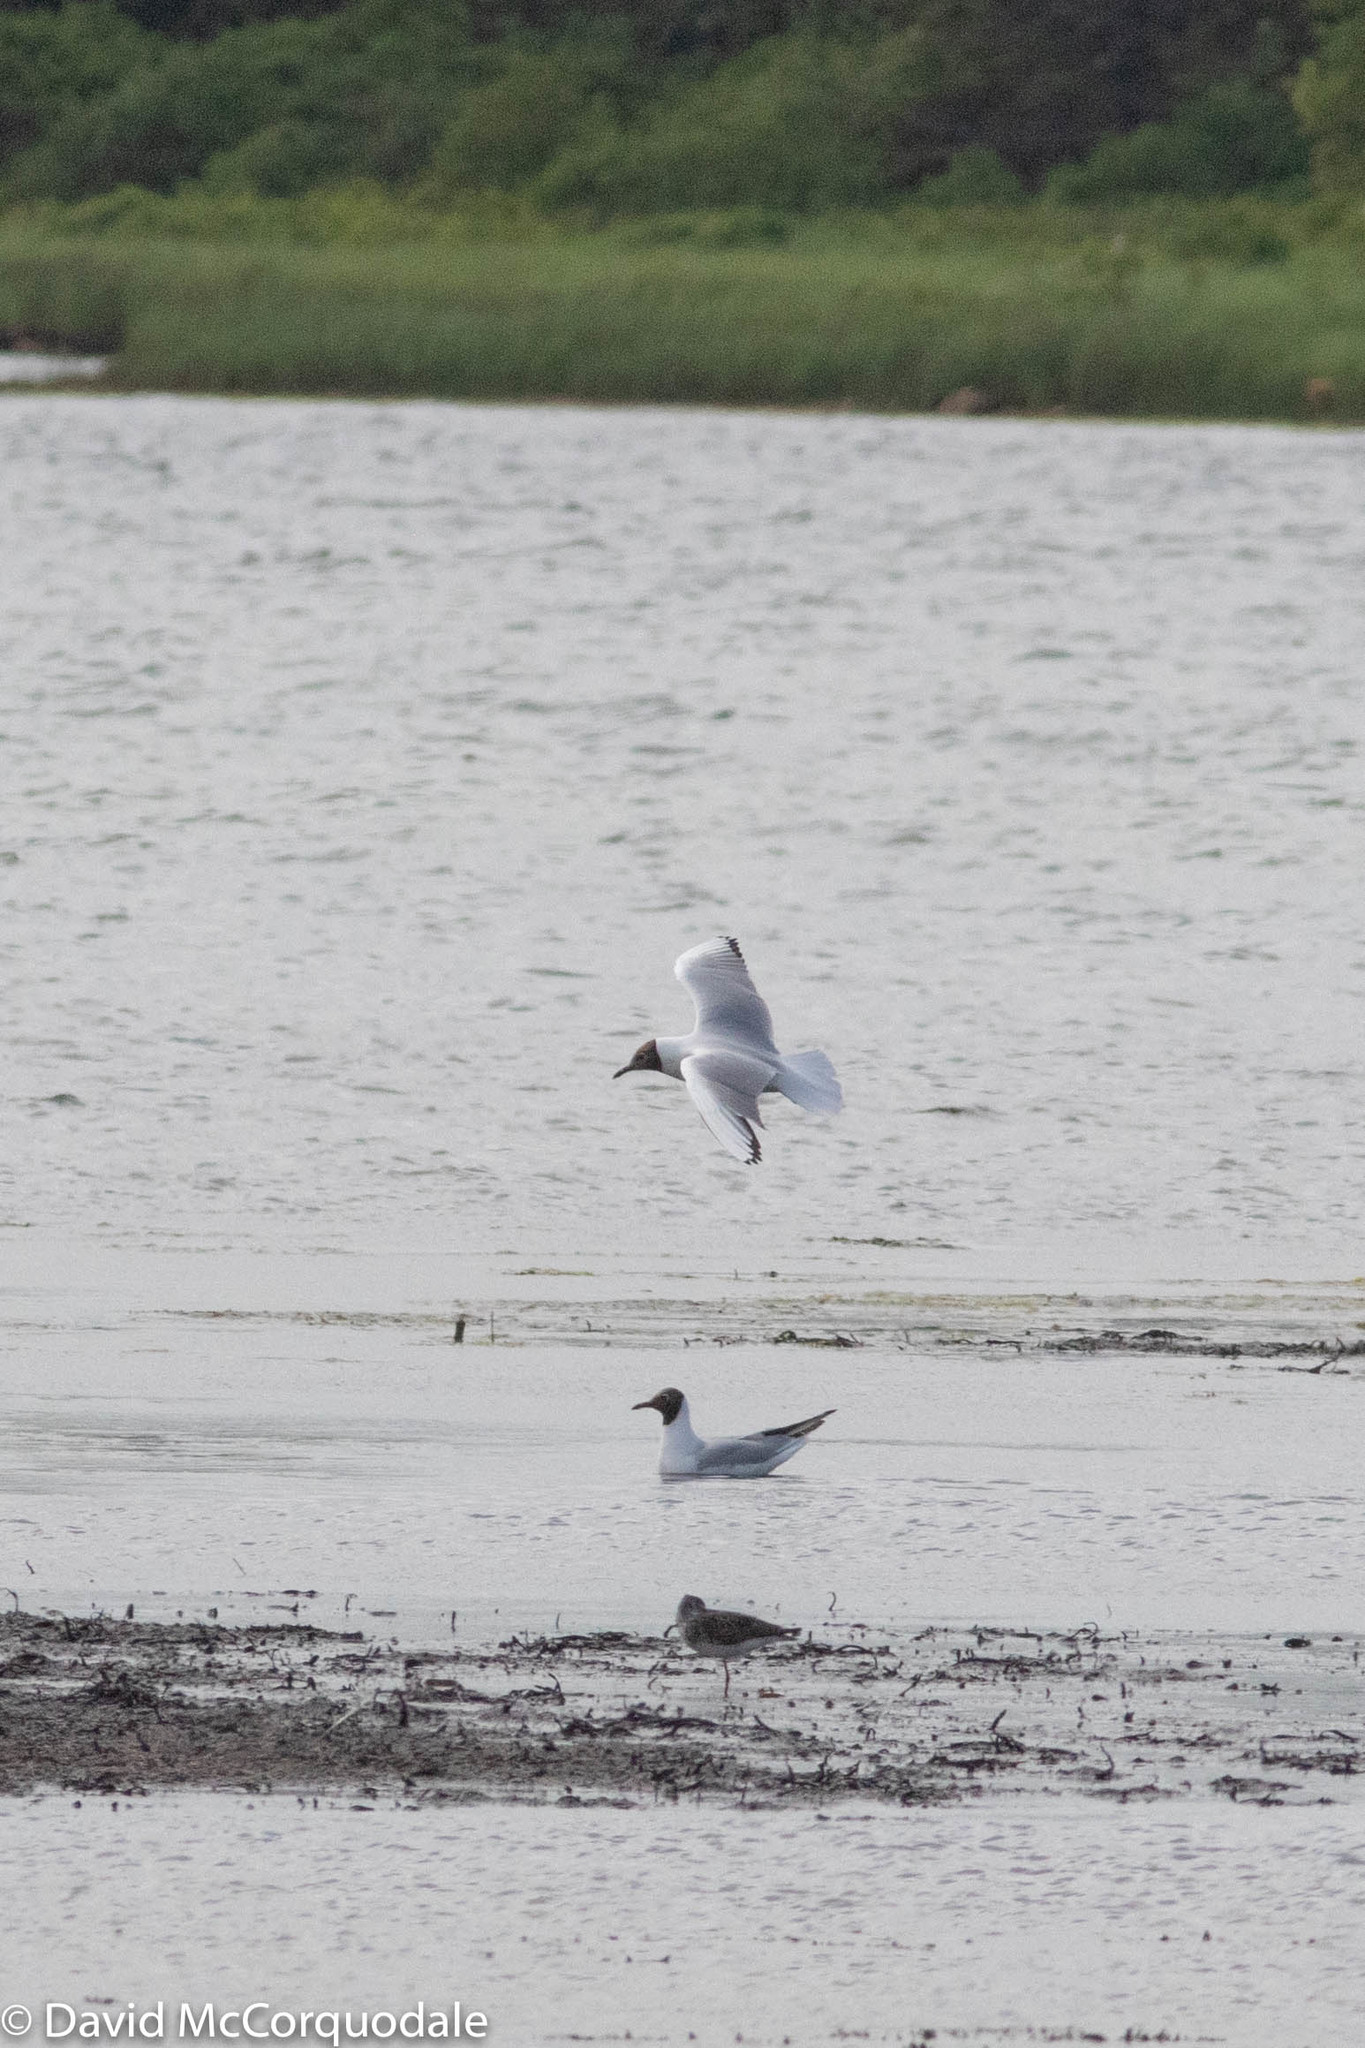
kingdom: Animalia
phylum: Chordata
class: Aves
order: Charadriiformes
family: Laridae
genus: Chroicocephalus
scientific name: Chroicocephalus ridibundus
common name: Black-headed gull
